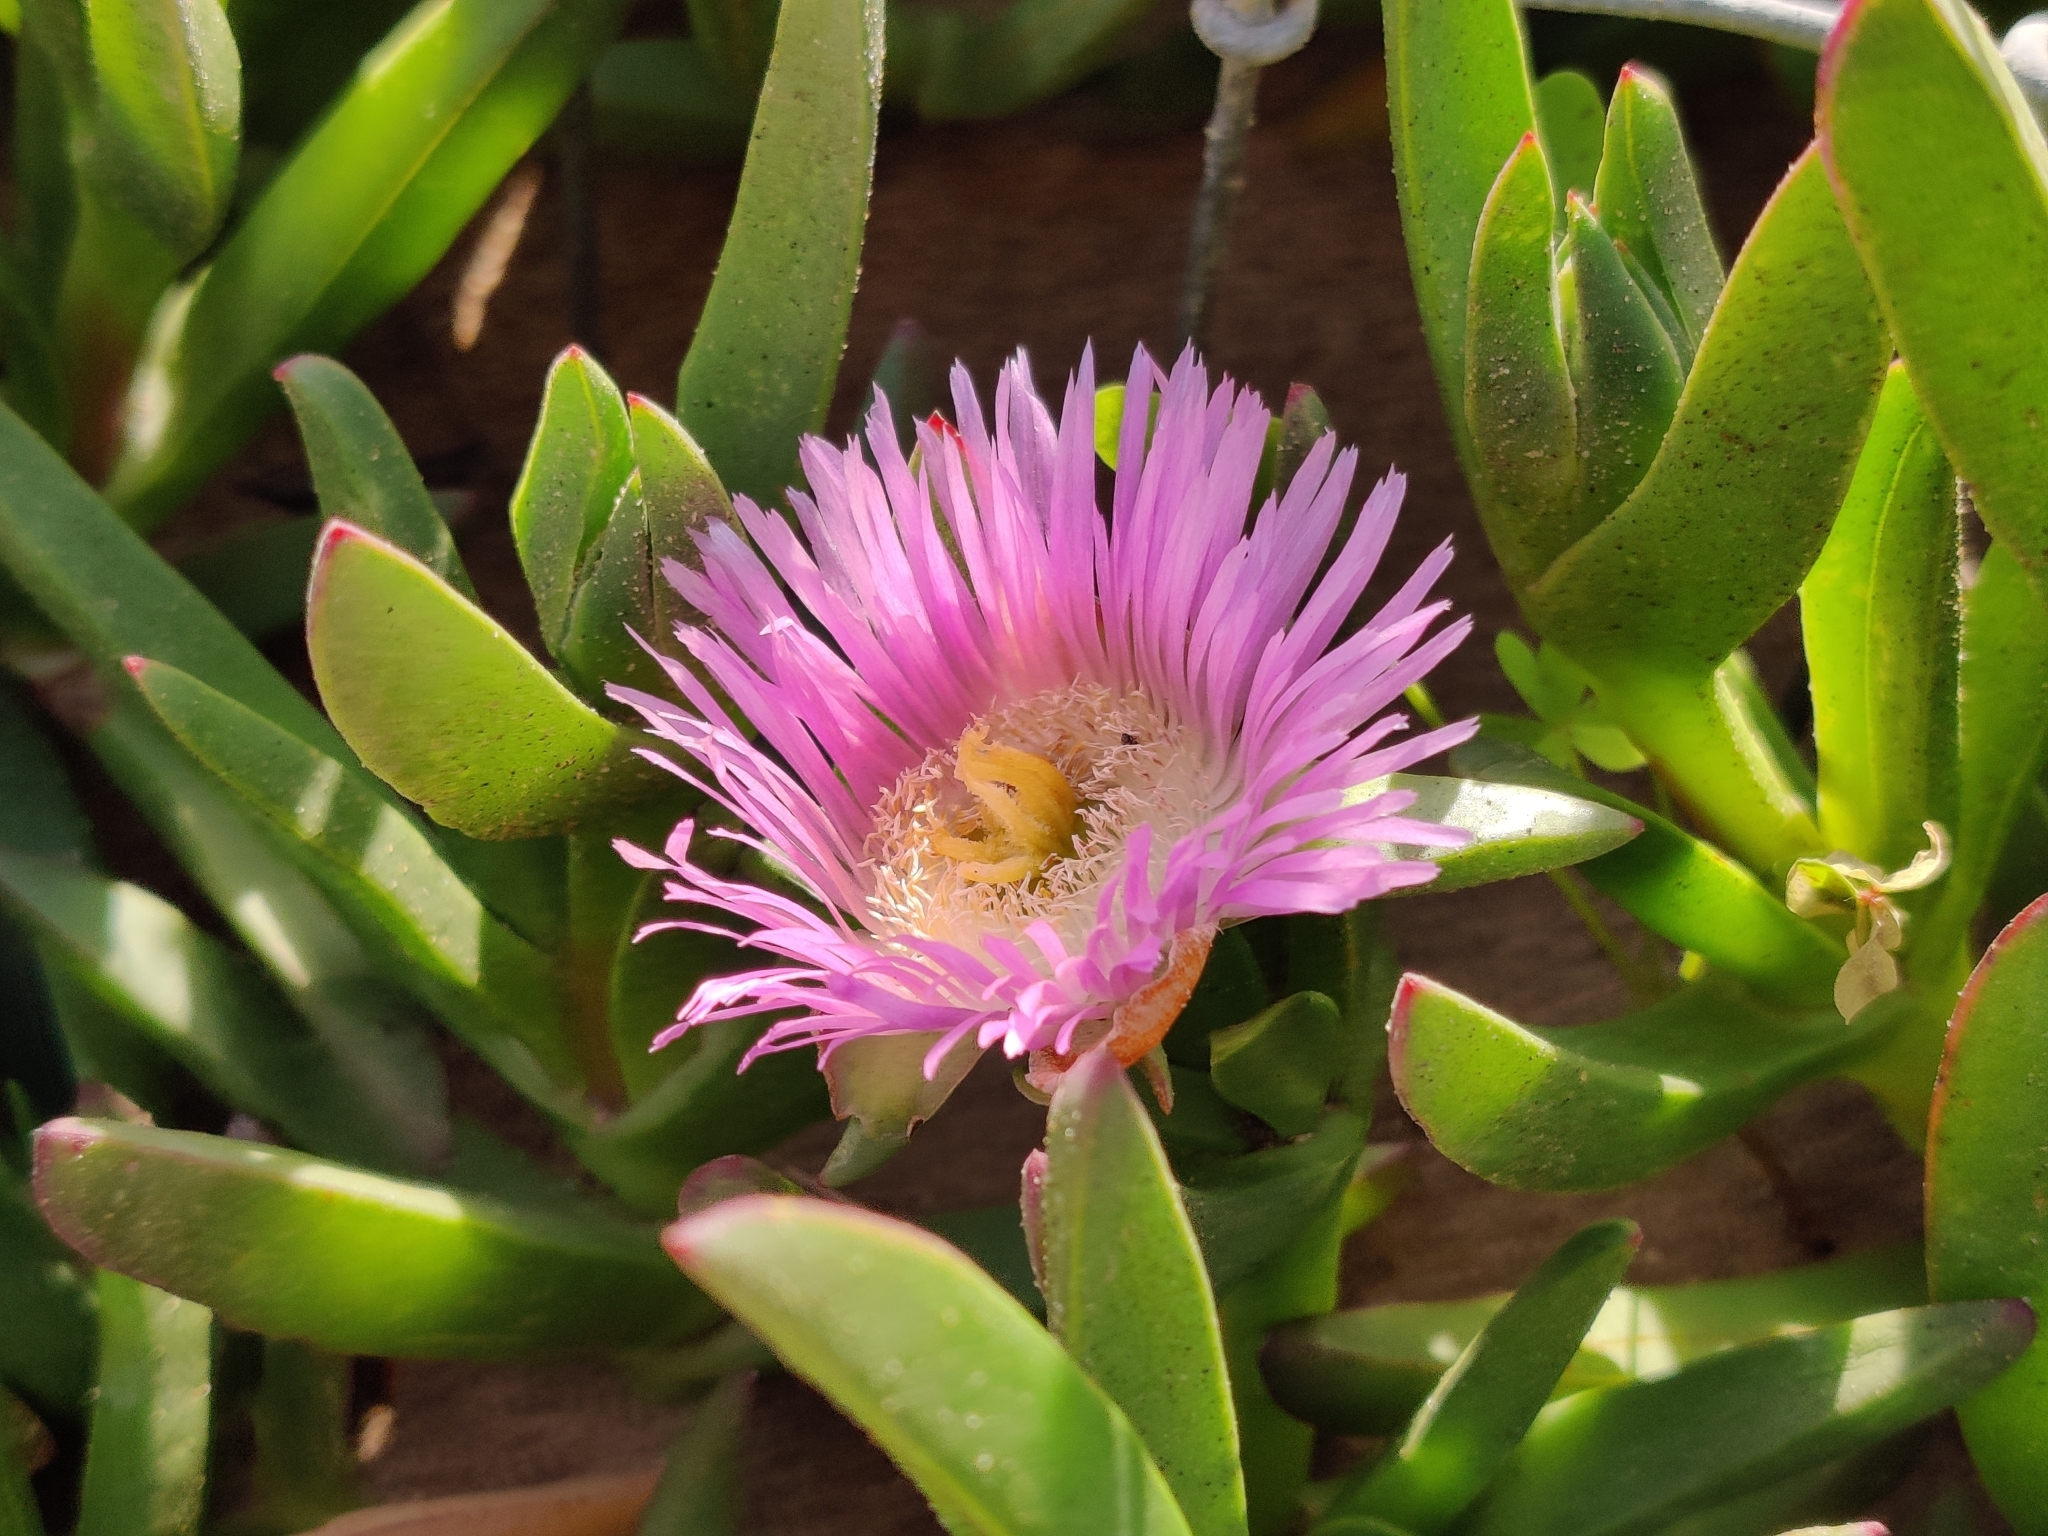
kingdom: Plantae
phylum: Tracheophyta
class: Magnoliopsida
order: Caryophyllales
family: Aizoaceae
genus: Carpobrotus
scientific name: Carpobrotus chilensis
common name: Sea fig
